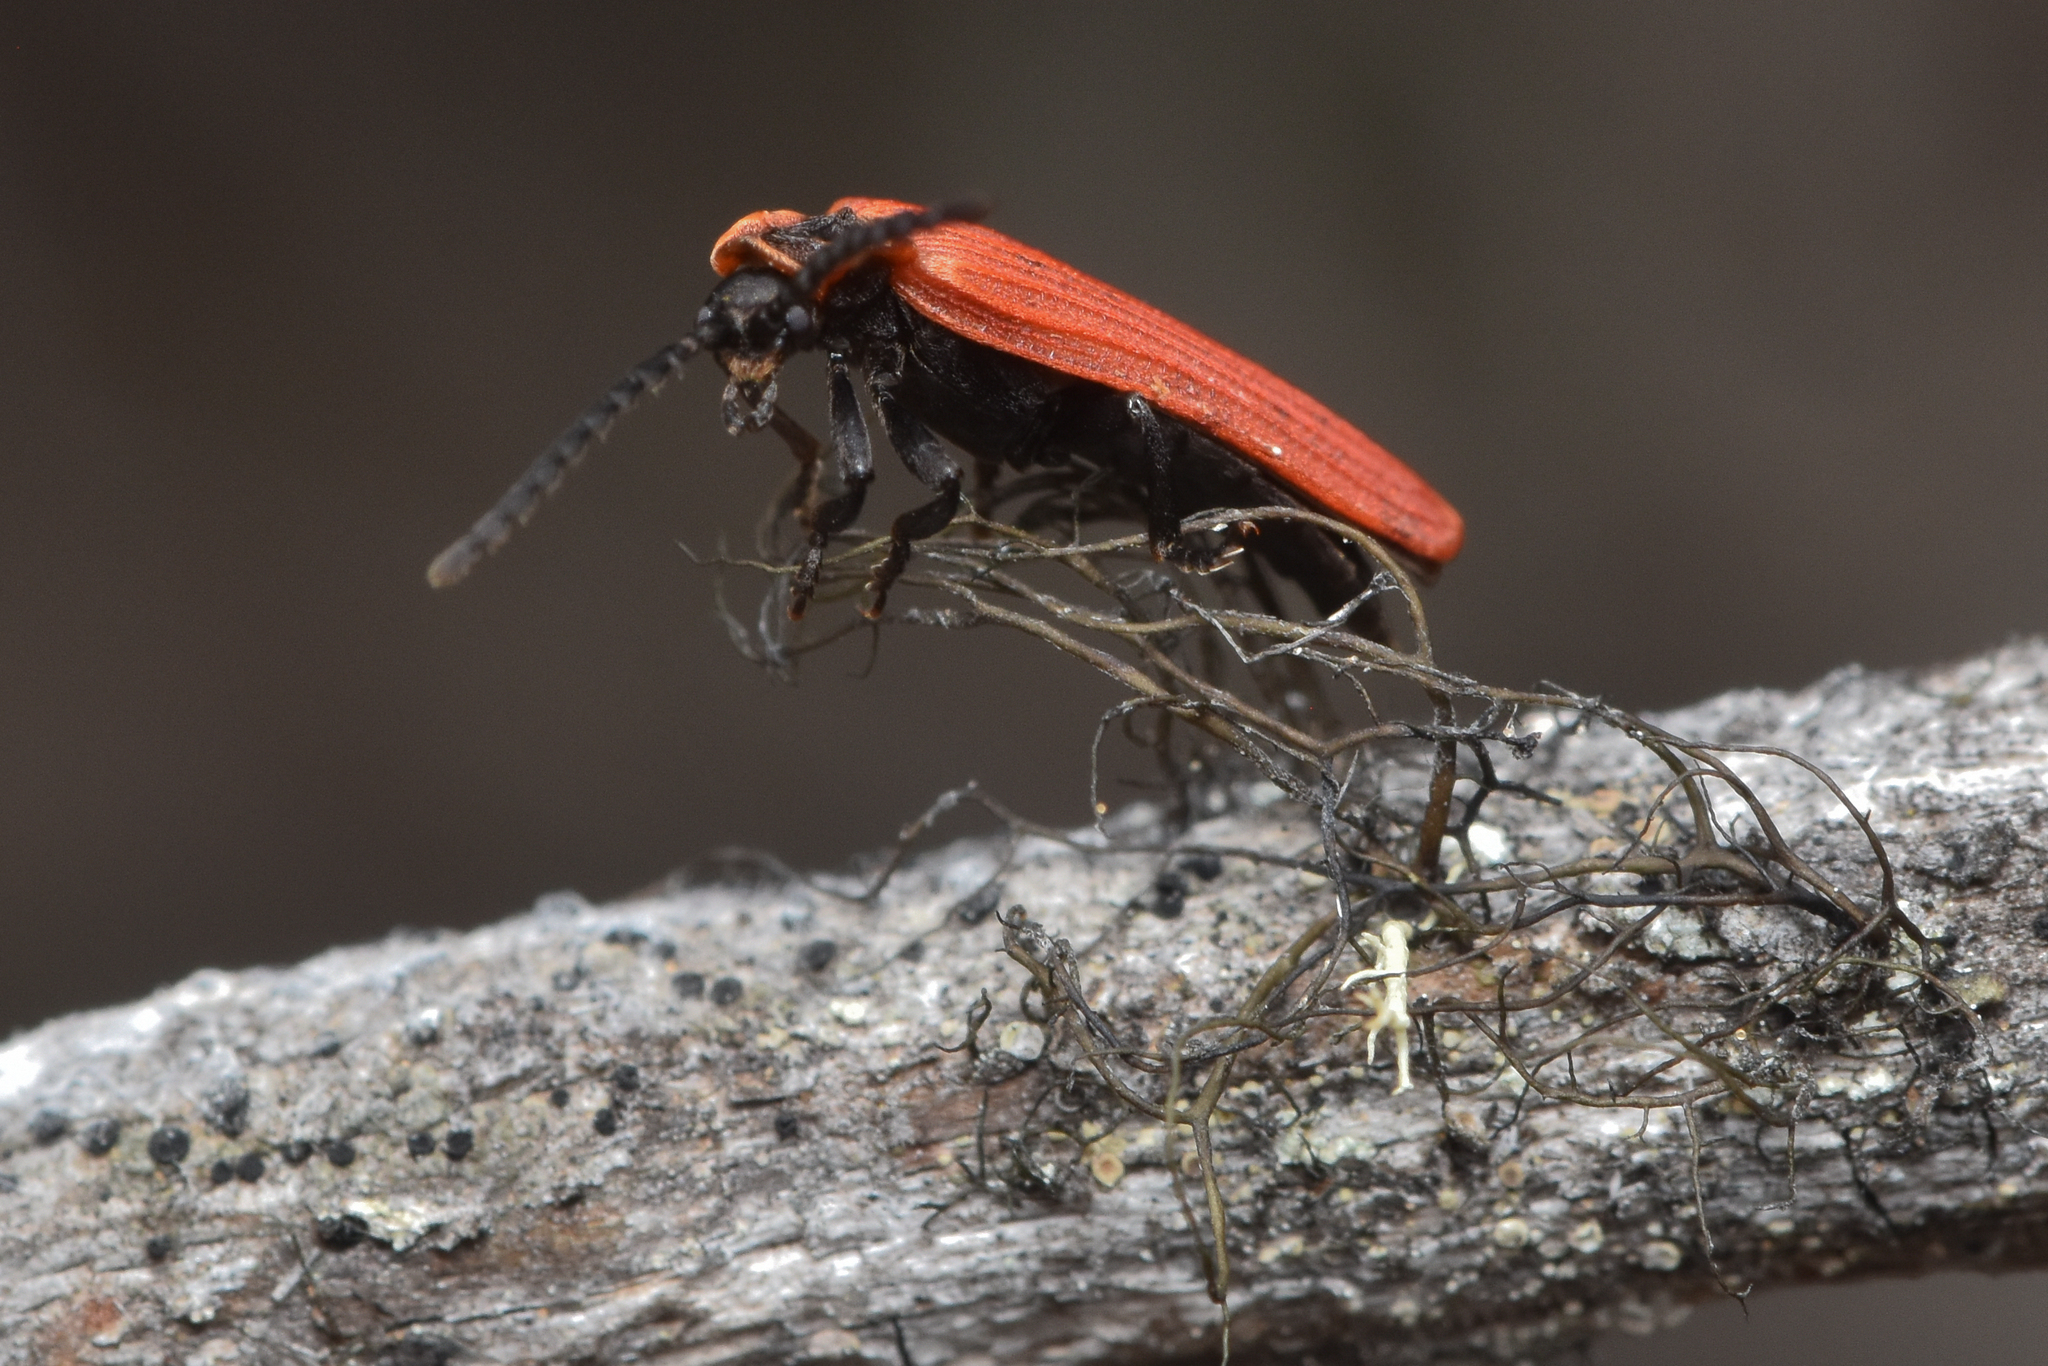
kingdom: Animalia
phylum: Arthropoda
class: Insecta
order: Coleoptera
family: Lycidae
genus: Dictyoptera
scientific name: Dictyoptera aurora
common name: Golden net-winged beetle
